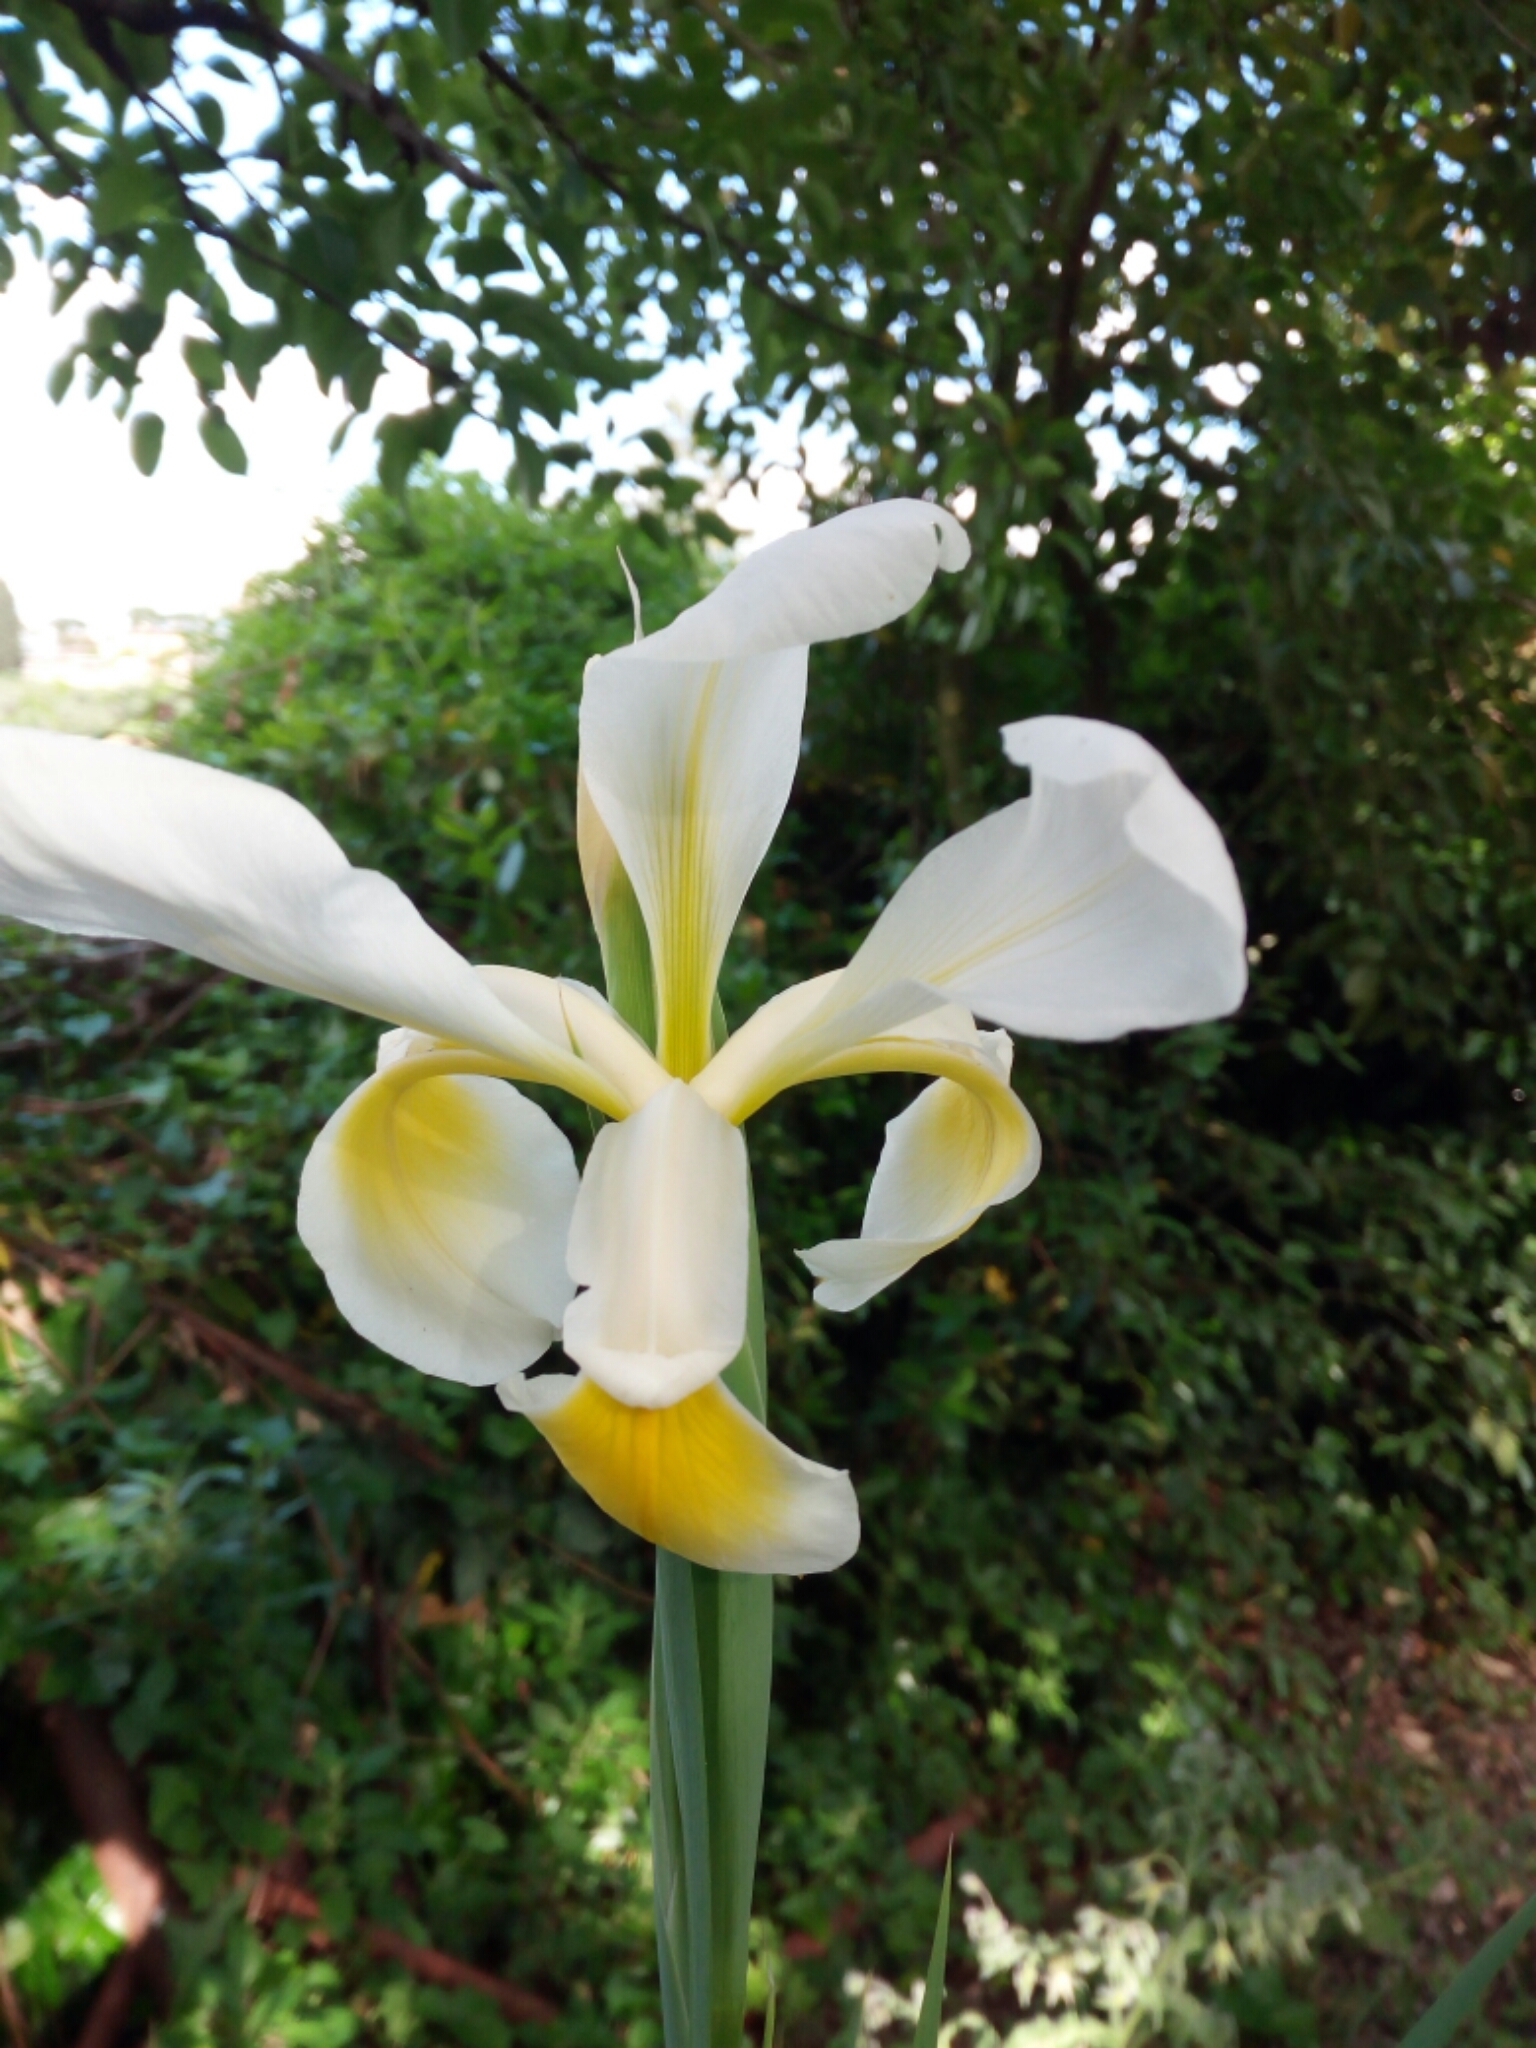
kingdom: Plantae
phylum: Tracheophyta
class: Liliopsida
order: Asparagales
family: Iridaceae
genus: Iris
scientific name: Iris orientalis
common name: Turkish iris
